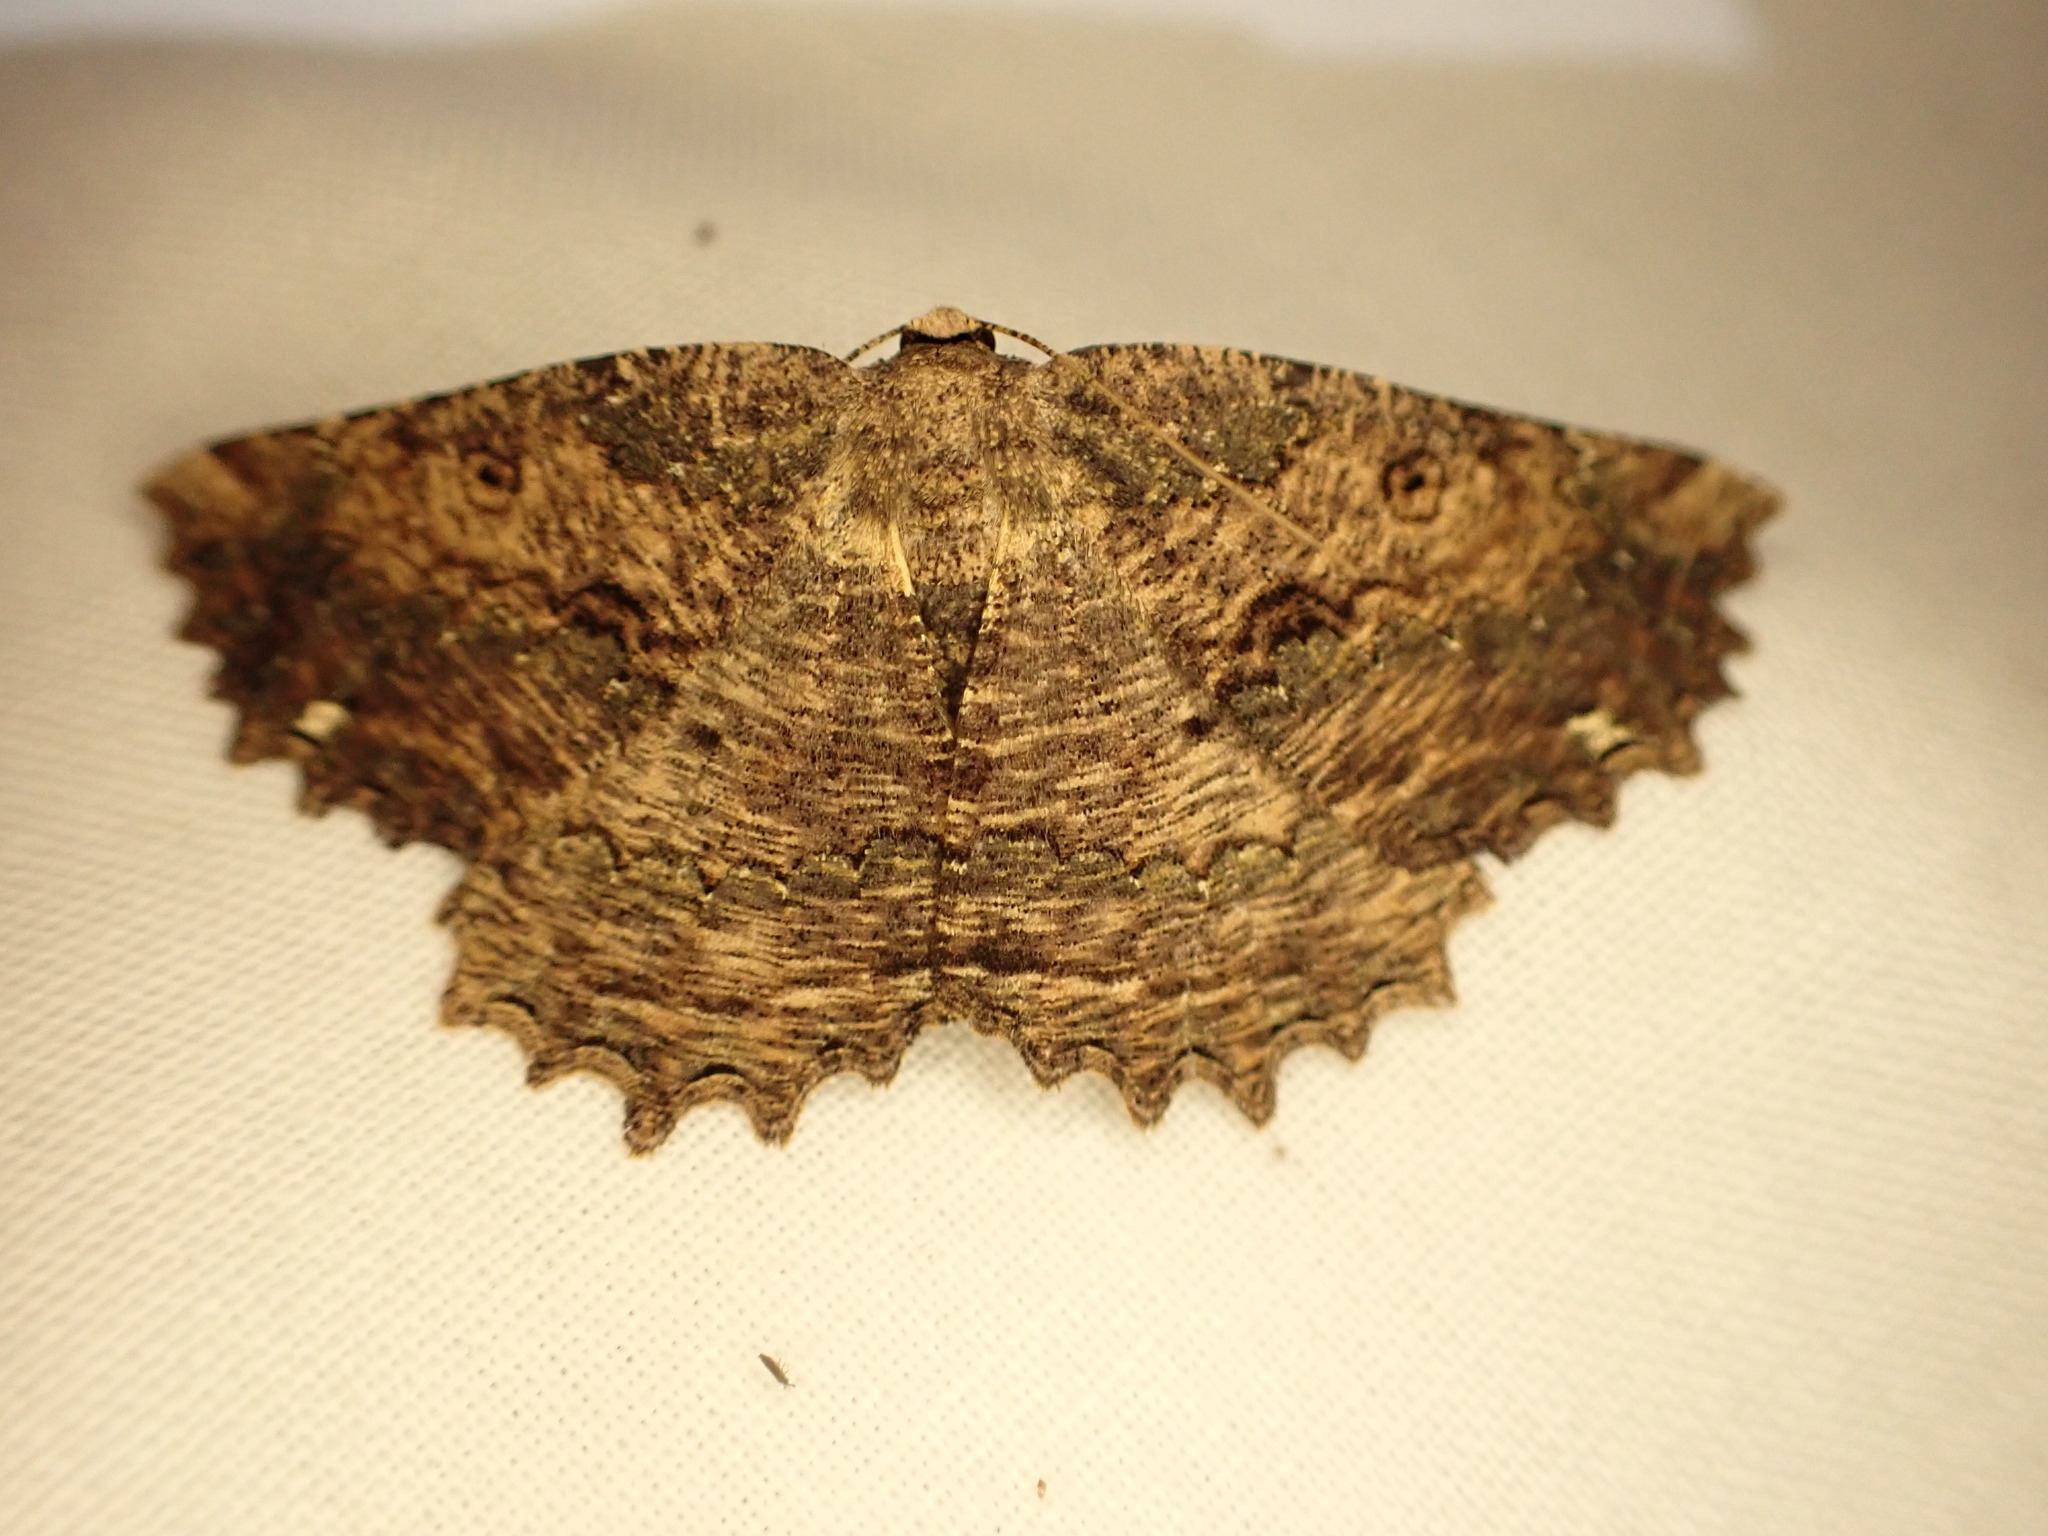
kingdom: Animalia
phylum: Arthropoda
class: Insecta
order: Lepidoptera
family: Geometridae
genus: Gellonia
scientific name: Gellonia pannularia
